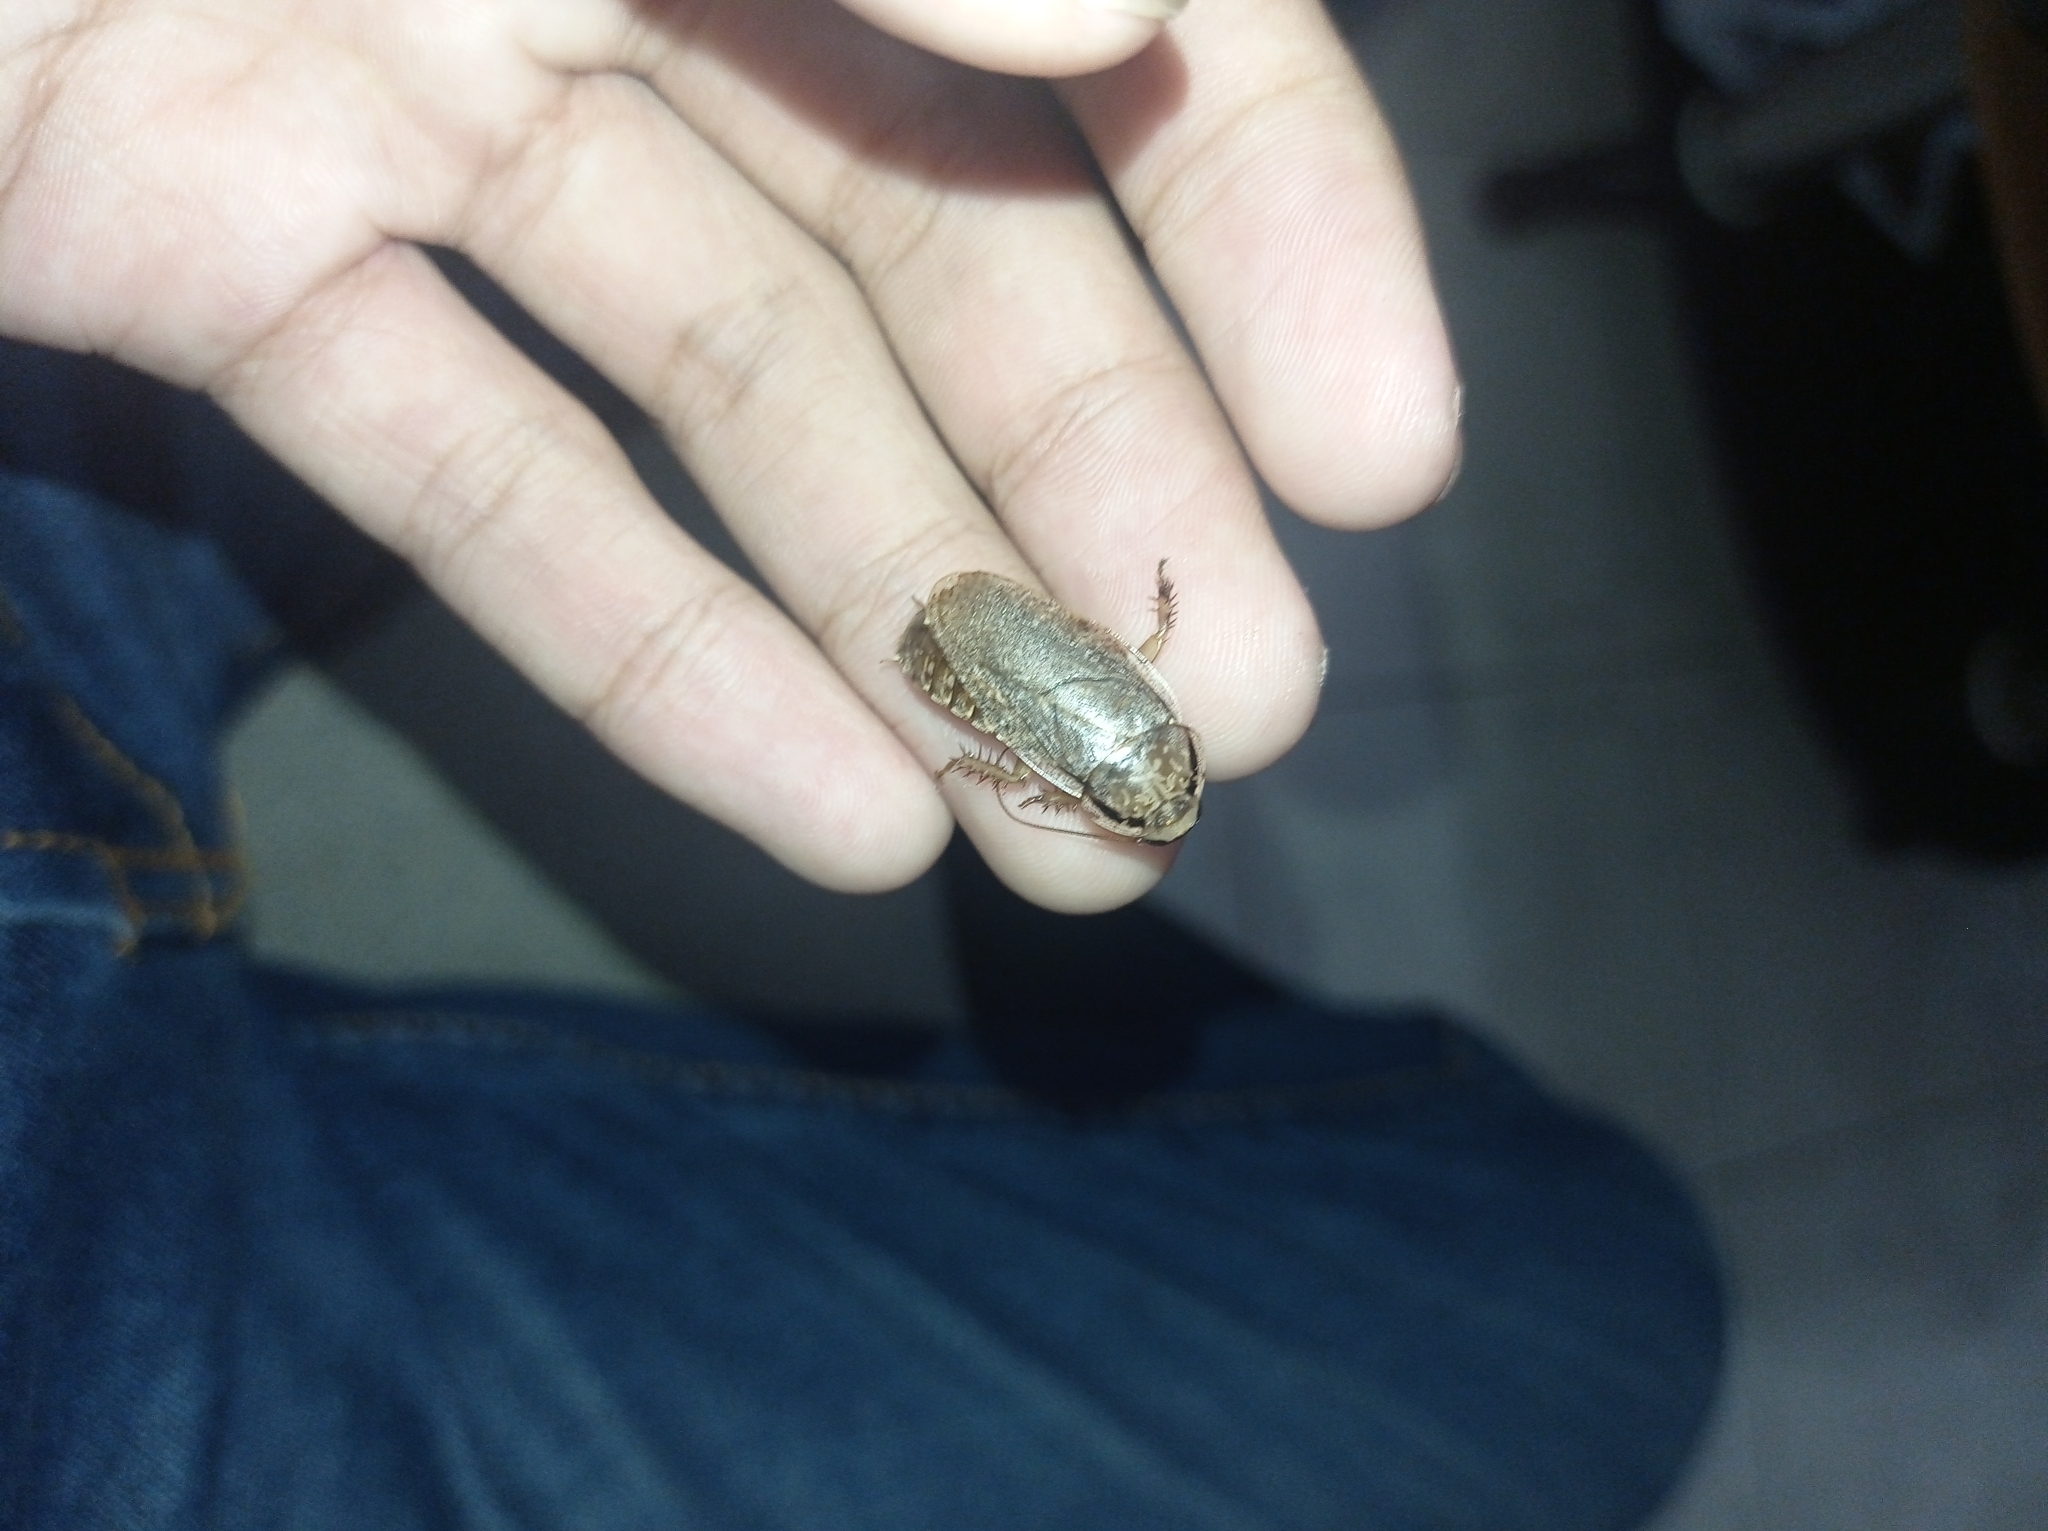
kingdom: Animalia
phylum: Arthropoda
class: Insecta
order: Blattodea
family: Blaberidae
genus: Nauphoeta
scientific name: Nauphoeta cinerea
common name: Lobster cockroach
